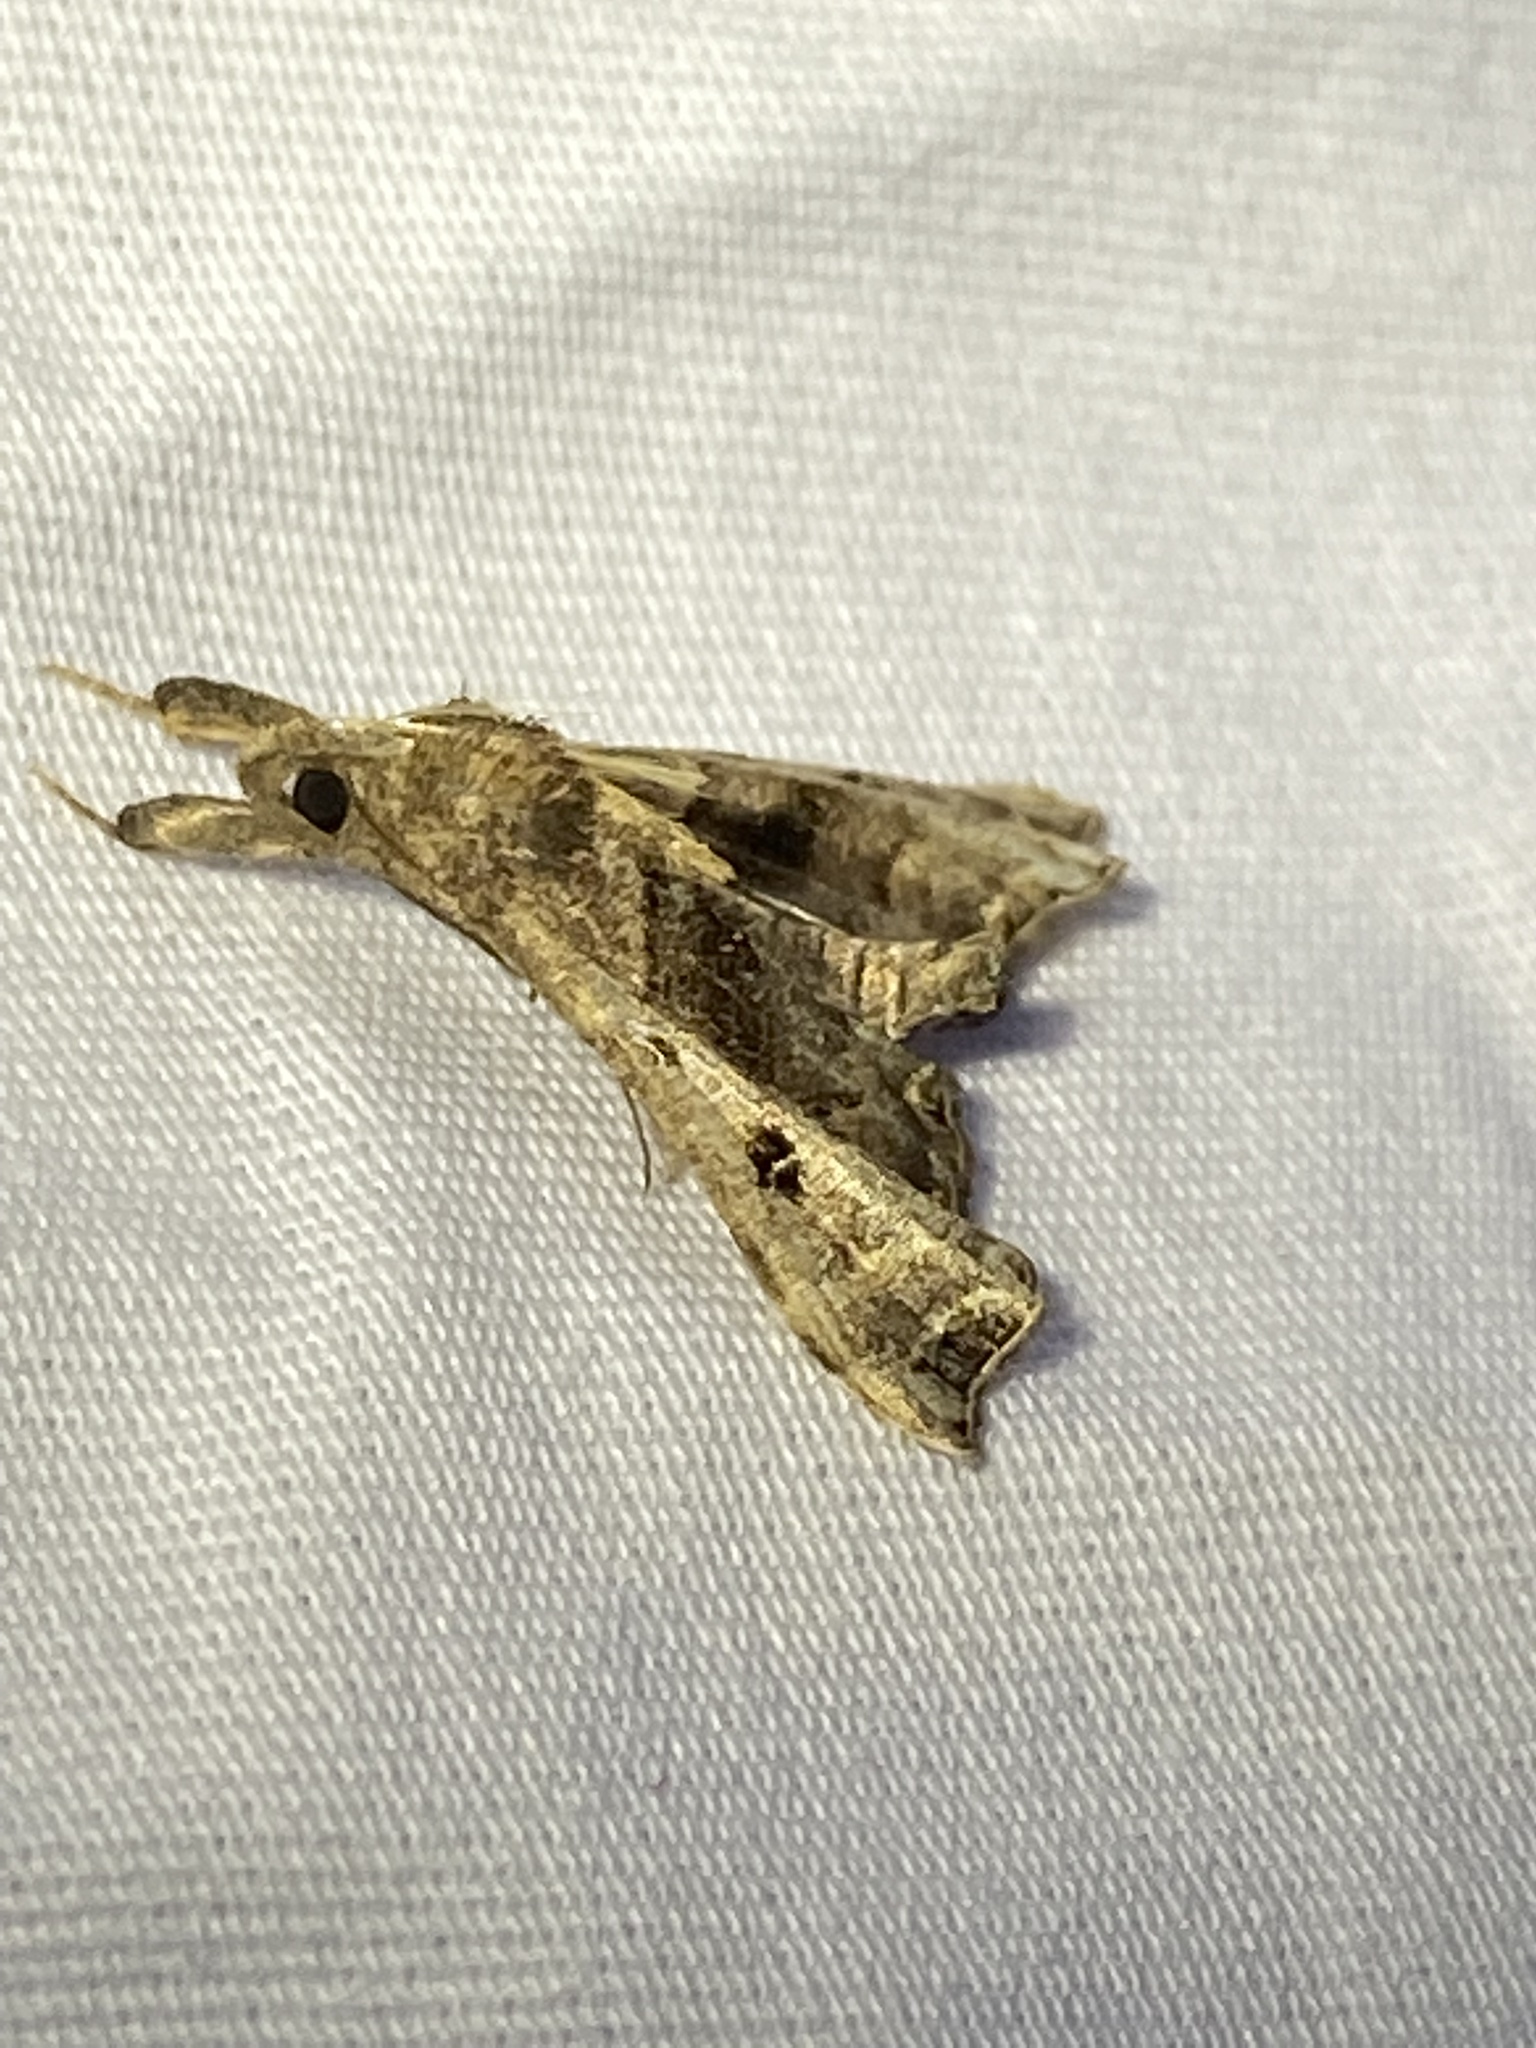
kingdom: Animalia
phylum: Arthropoda
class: Insecta
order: Lepidoptera
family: Erebidae
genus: Palthis
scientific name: Palthis asopialis
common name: Faint-spotted palthis moth
